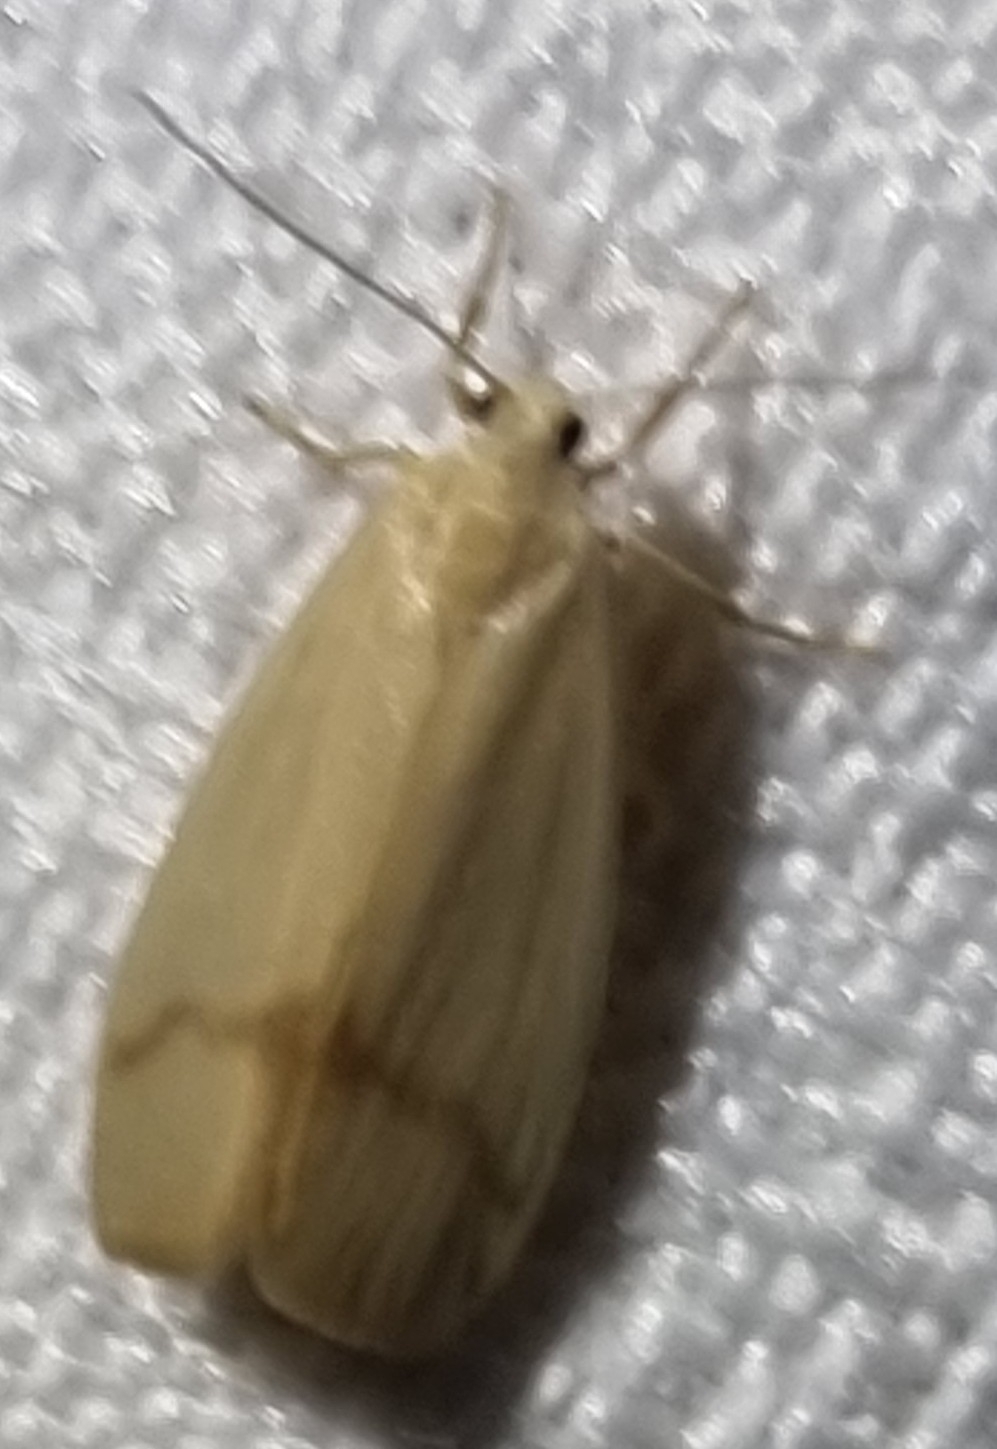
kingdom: Animalia
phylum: Arthropoda
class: Insecta
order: Lepidoptera
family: Erebidae
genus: Notata
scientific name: Notata modicus
